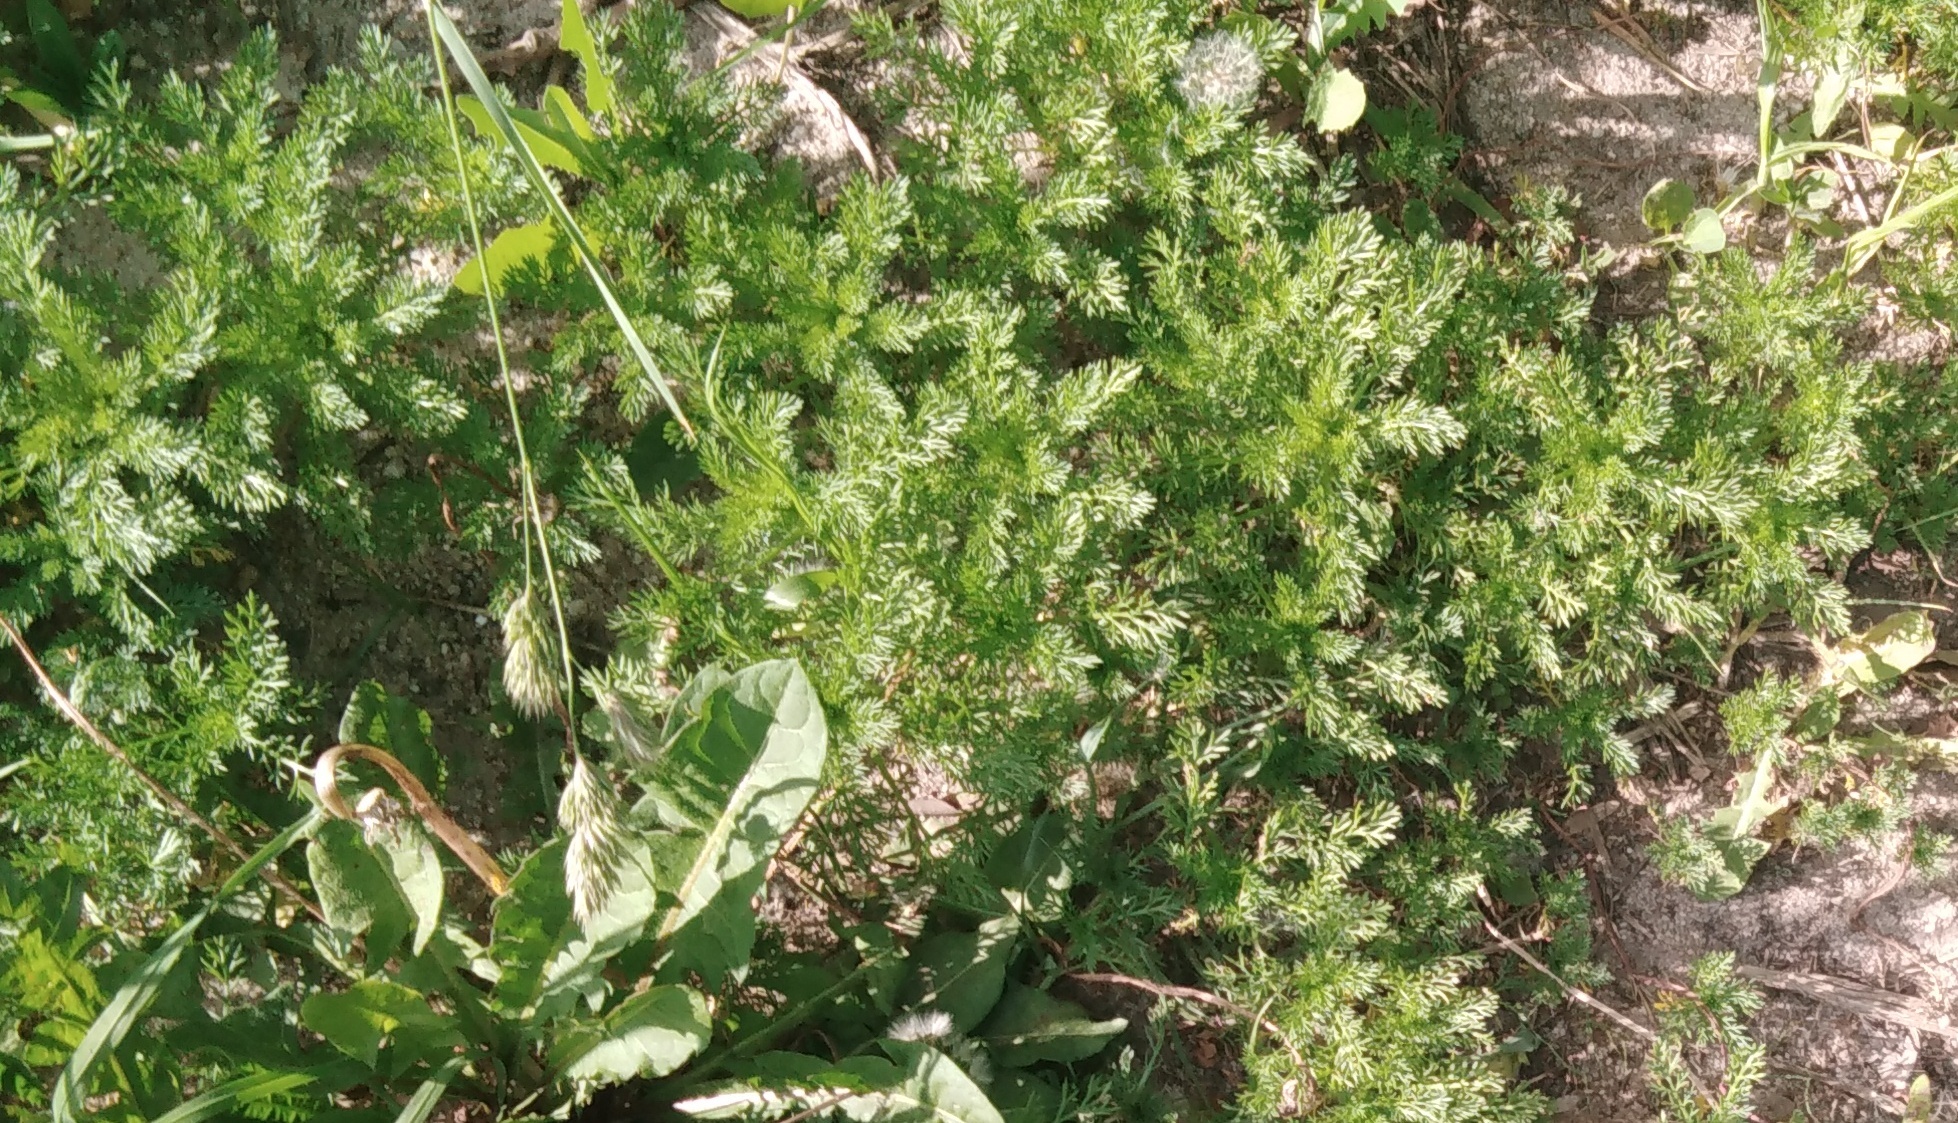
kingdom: Plantae
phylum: Tracheophyta
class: Magnoliopsida
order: Asterales
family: Asteraceae
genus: Tripleurospermum
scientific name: Tripleurospermum inodorum
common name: Scentless mayweed
